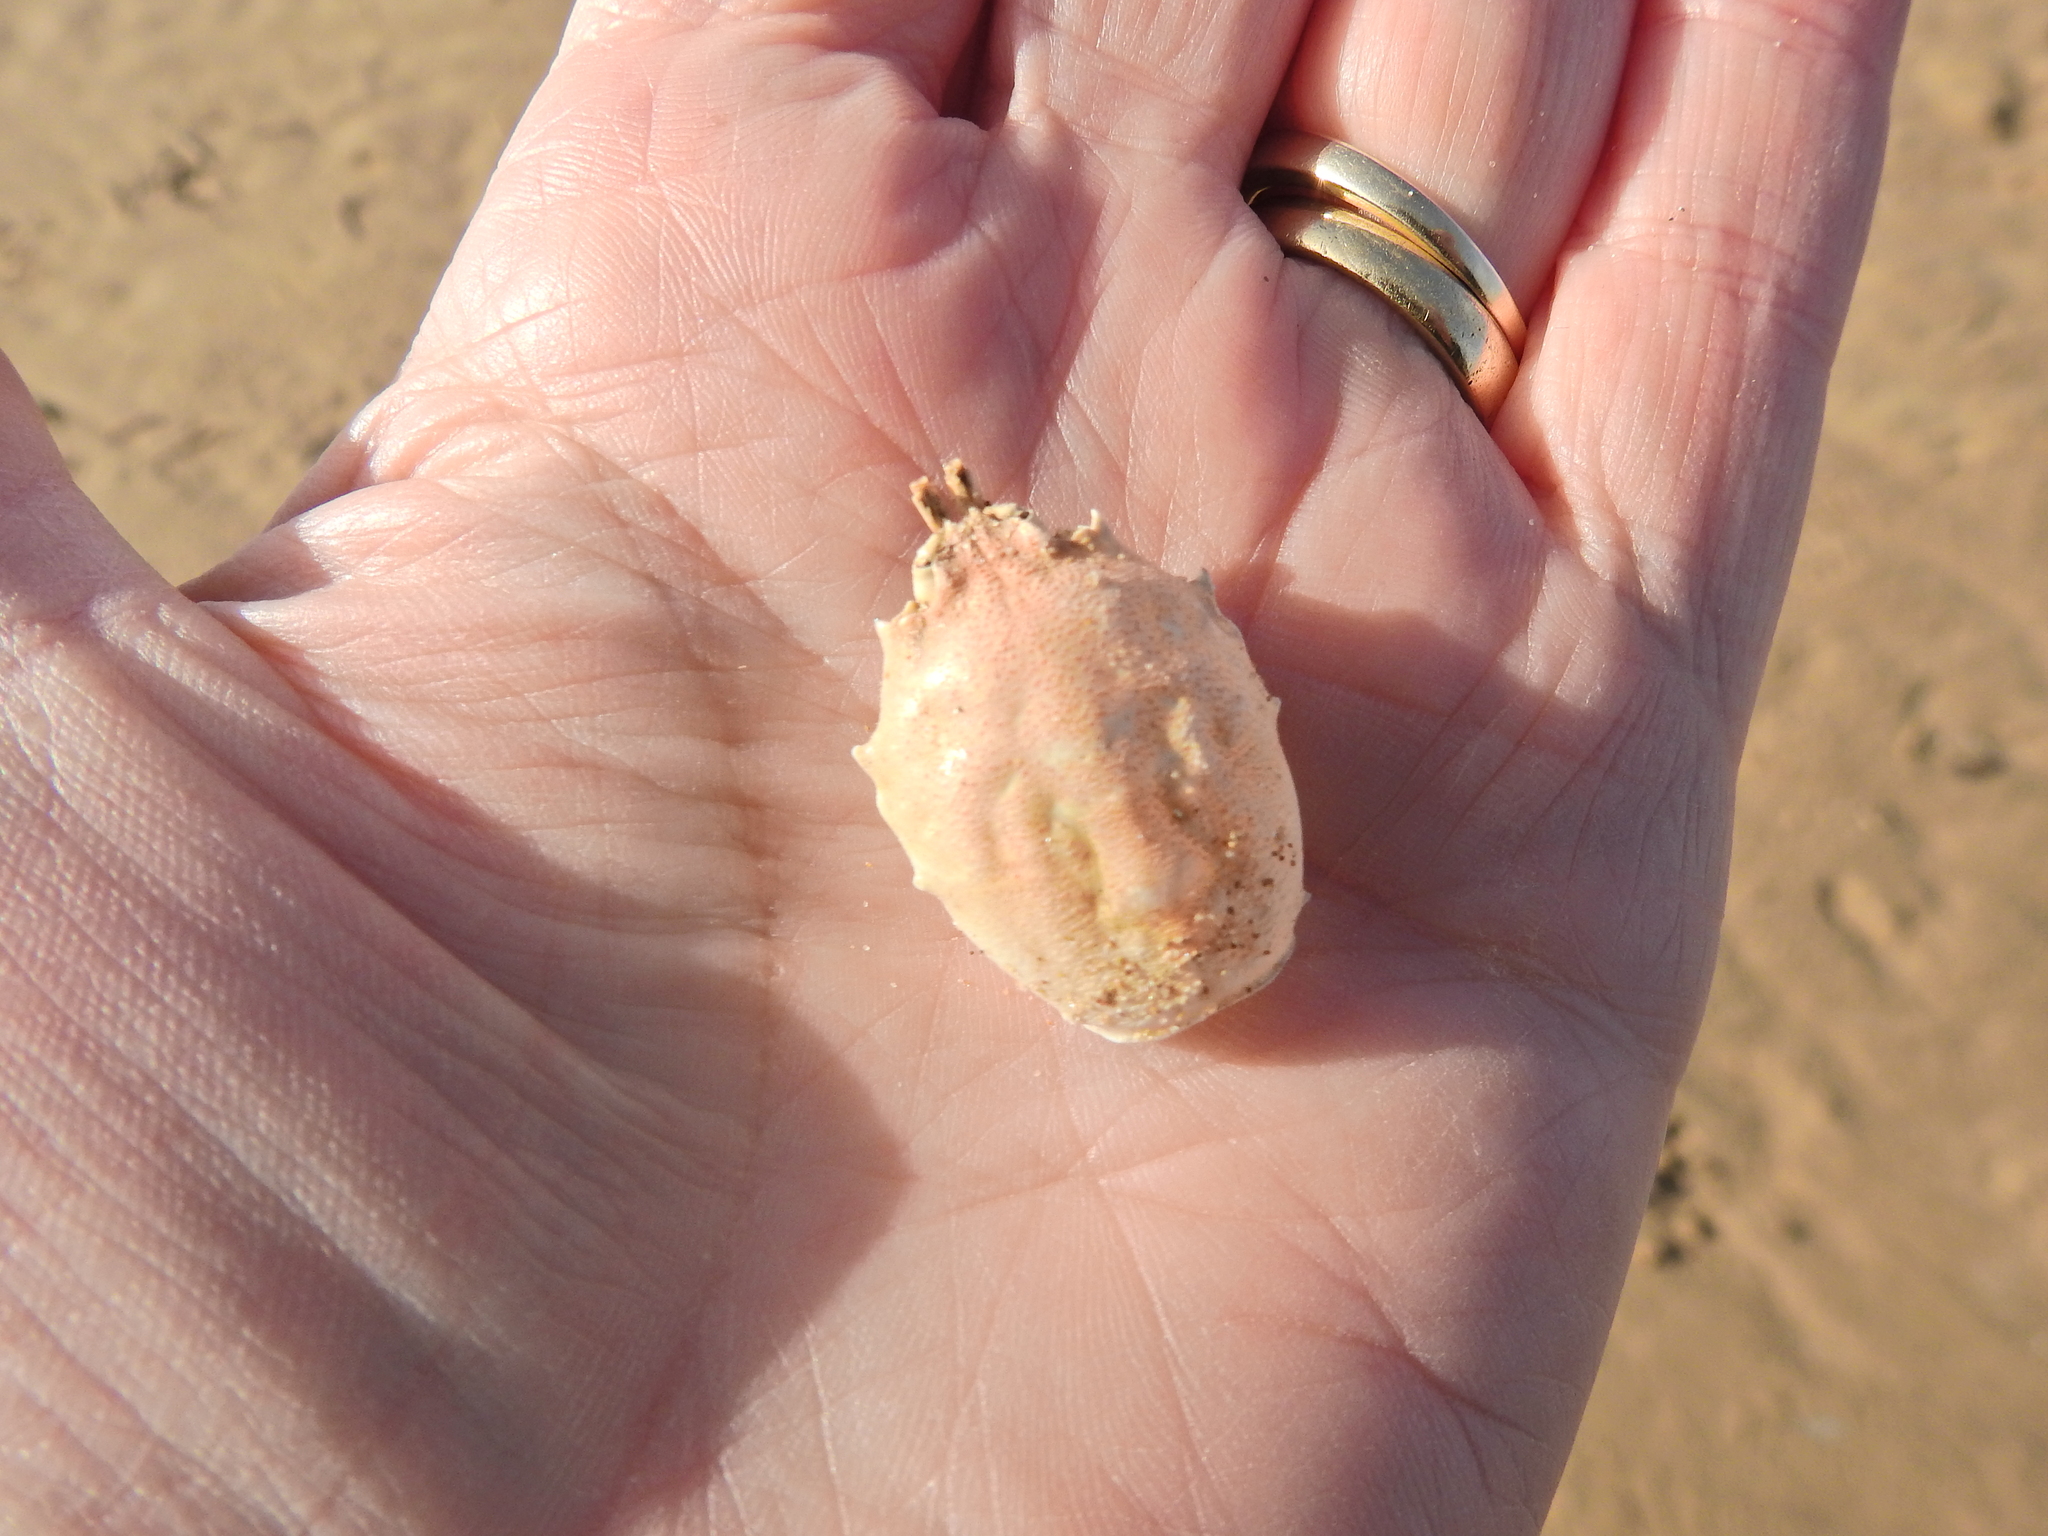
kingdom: Animalia
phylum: Arthropoda
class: Malacostraca
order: Decapoda
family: Corystidae
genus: Corystes
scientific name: Corystes cassivelaunus
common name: Masked crab
